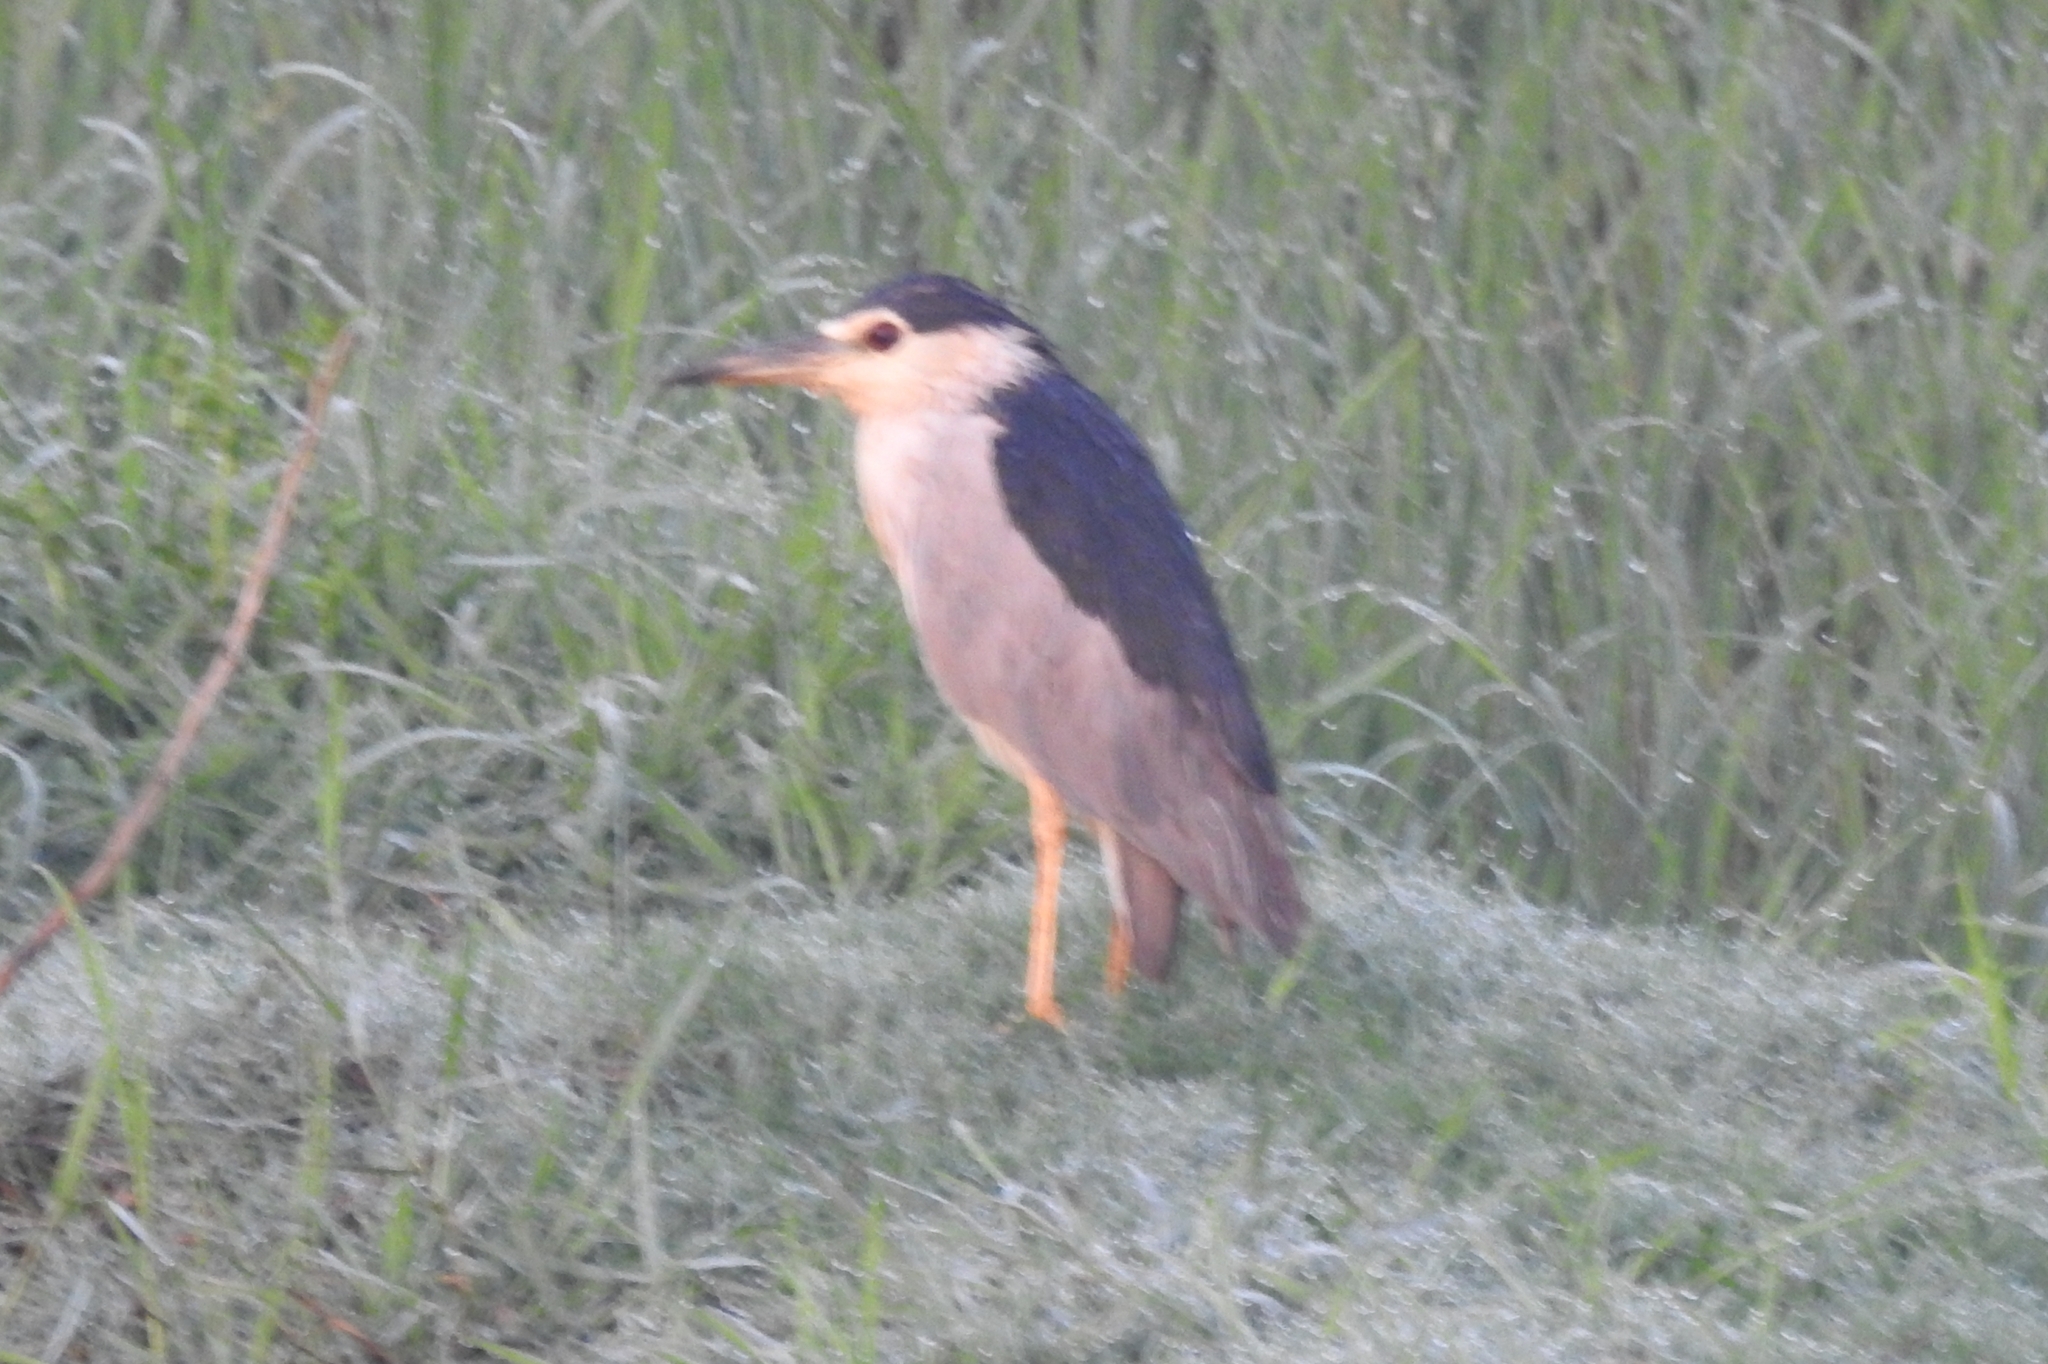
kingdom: Animalia
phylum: Chordata
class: Aves
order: Pelecaniformes
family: Ardeidae
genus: Nycticorax
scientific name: Nycticorax nycticorax
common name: Black-crowned night heron
